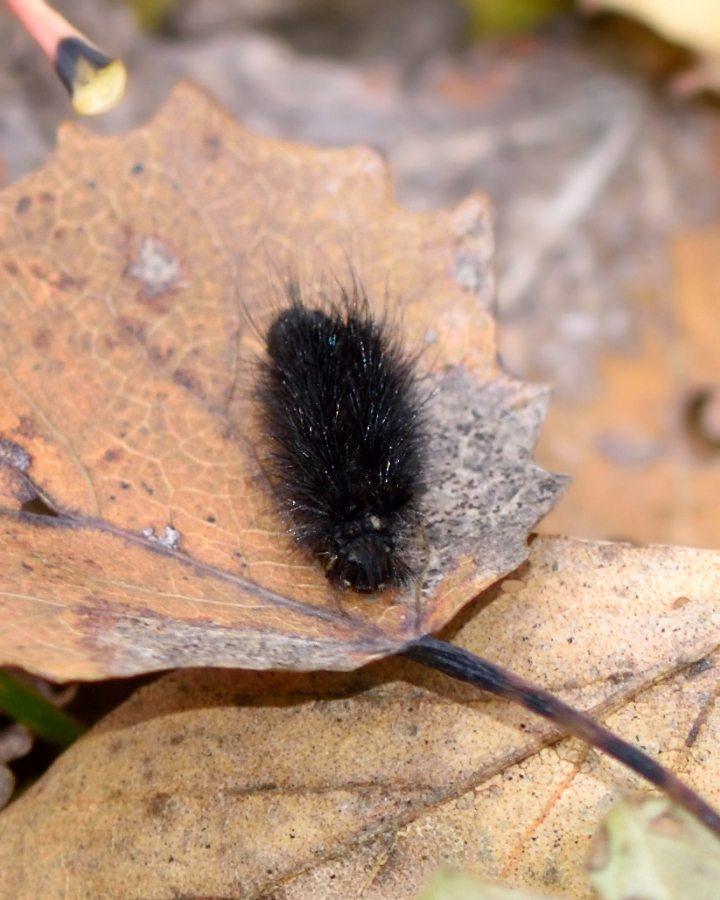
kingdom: Animalia
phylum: Arthropoda
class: Insecta
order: Lepidoptera
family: Erebidae
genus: Phragmatobia
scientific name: Phragmatobia fuliginosa
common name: Ruby tiger
